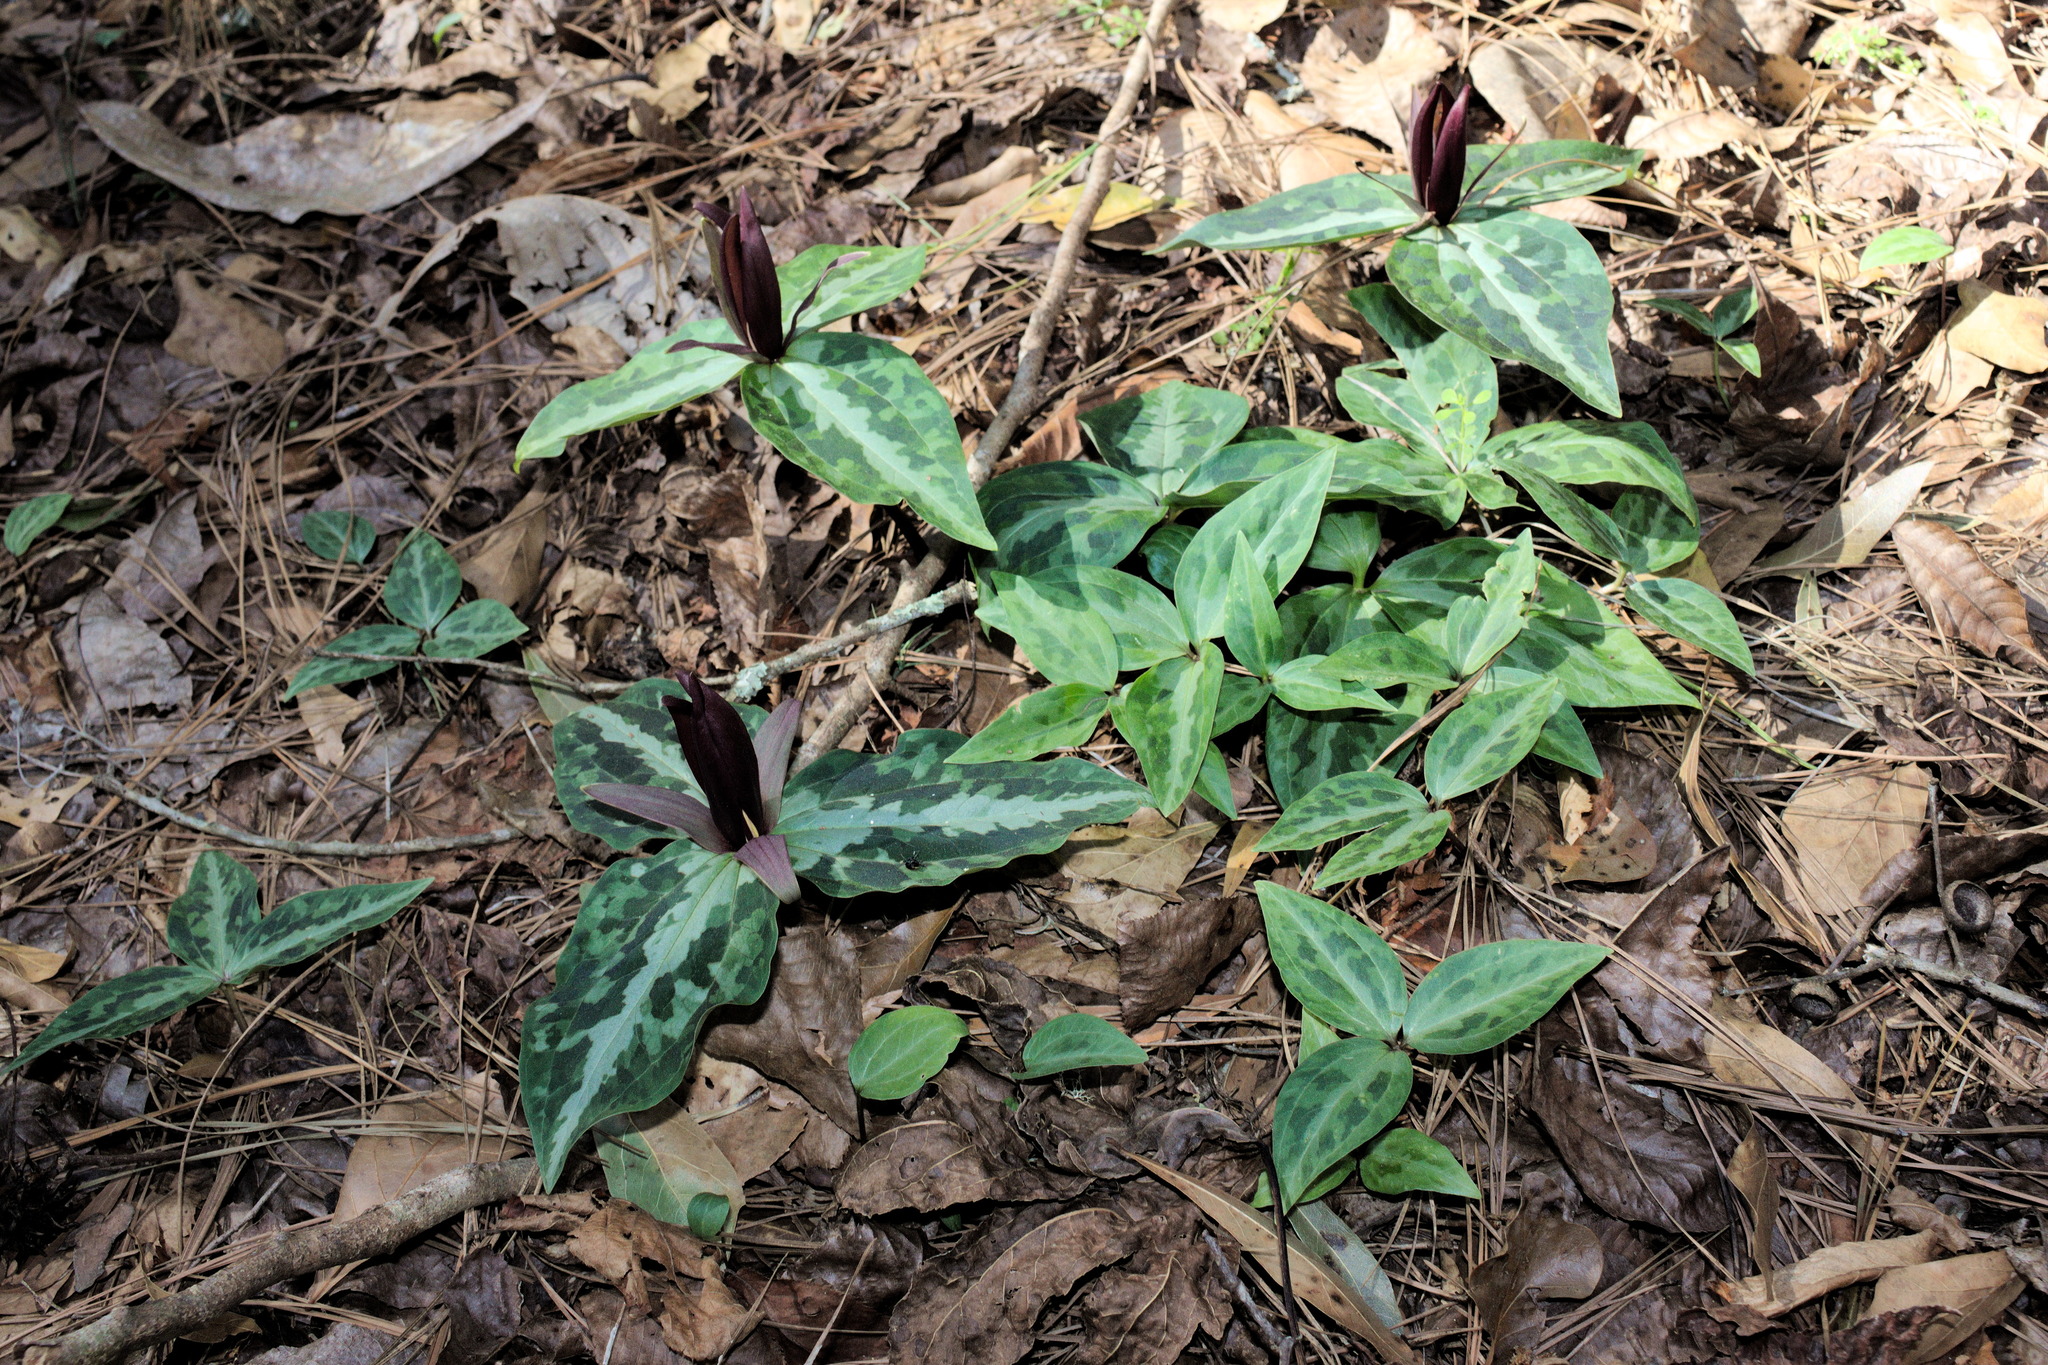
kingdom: Plantae
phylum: Tracheophyta
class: Liliopsida
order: Liliales
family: Melanthiaceae
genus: Trillium
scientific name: Trillium underwoodii
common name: Longbract wakerobin
